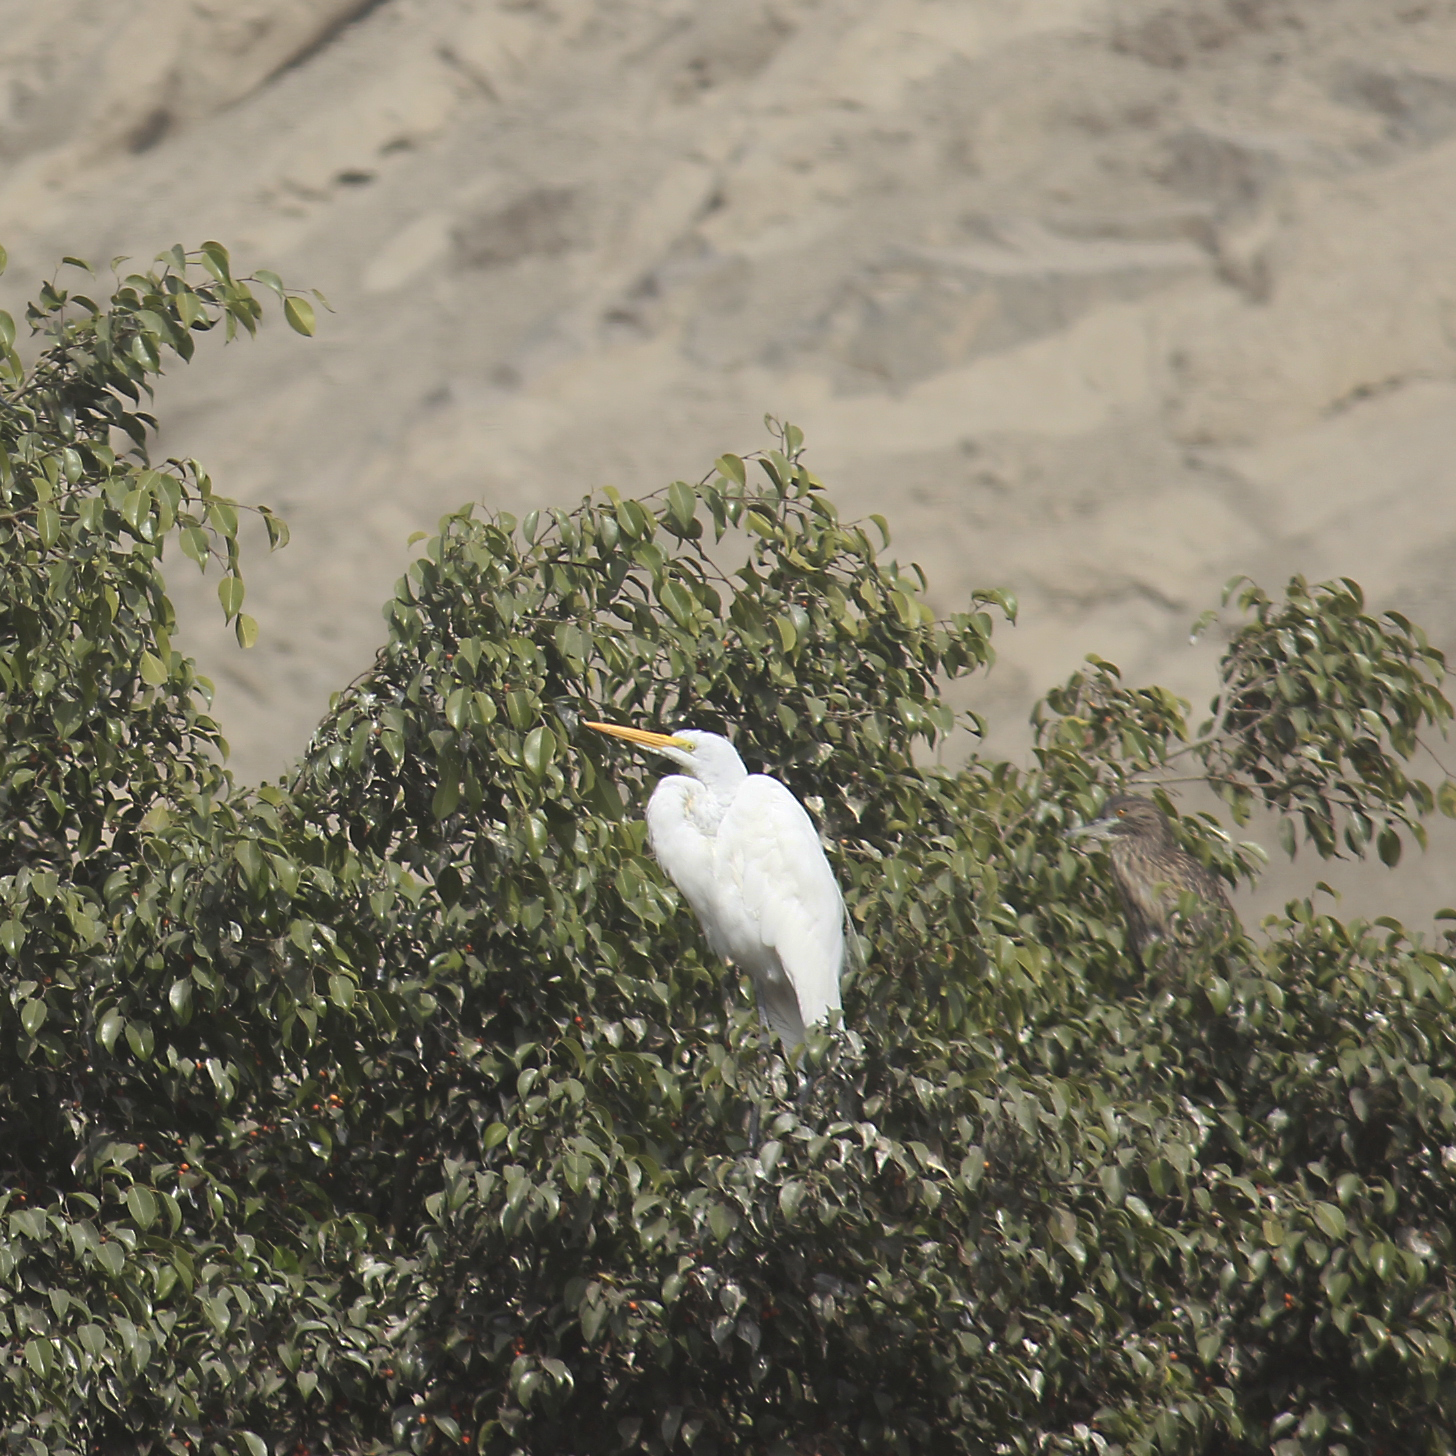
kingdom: Animalia
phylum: Chordata
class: Aves
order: Pelecaniformes
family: Ardeidae
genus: Ardea
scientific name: Ardea alba
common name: Great egret
